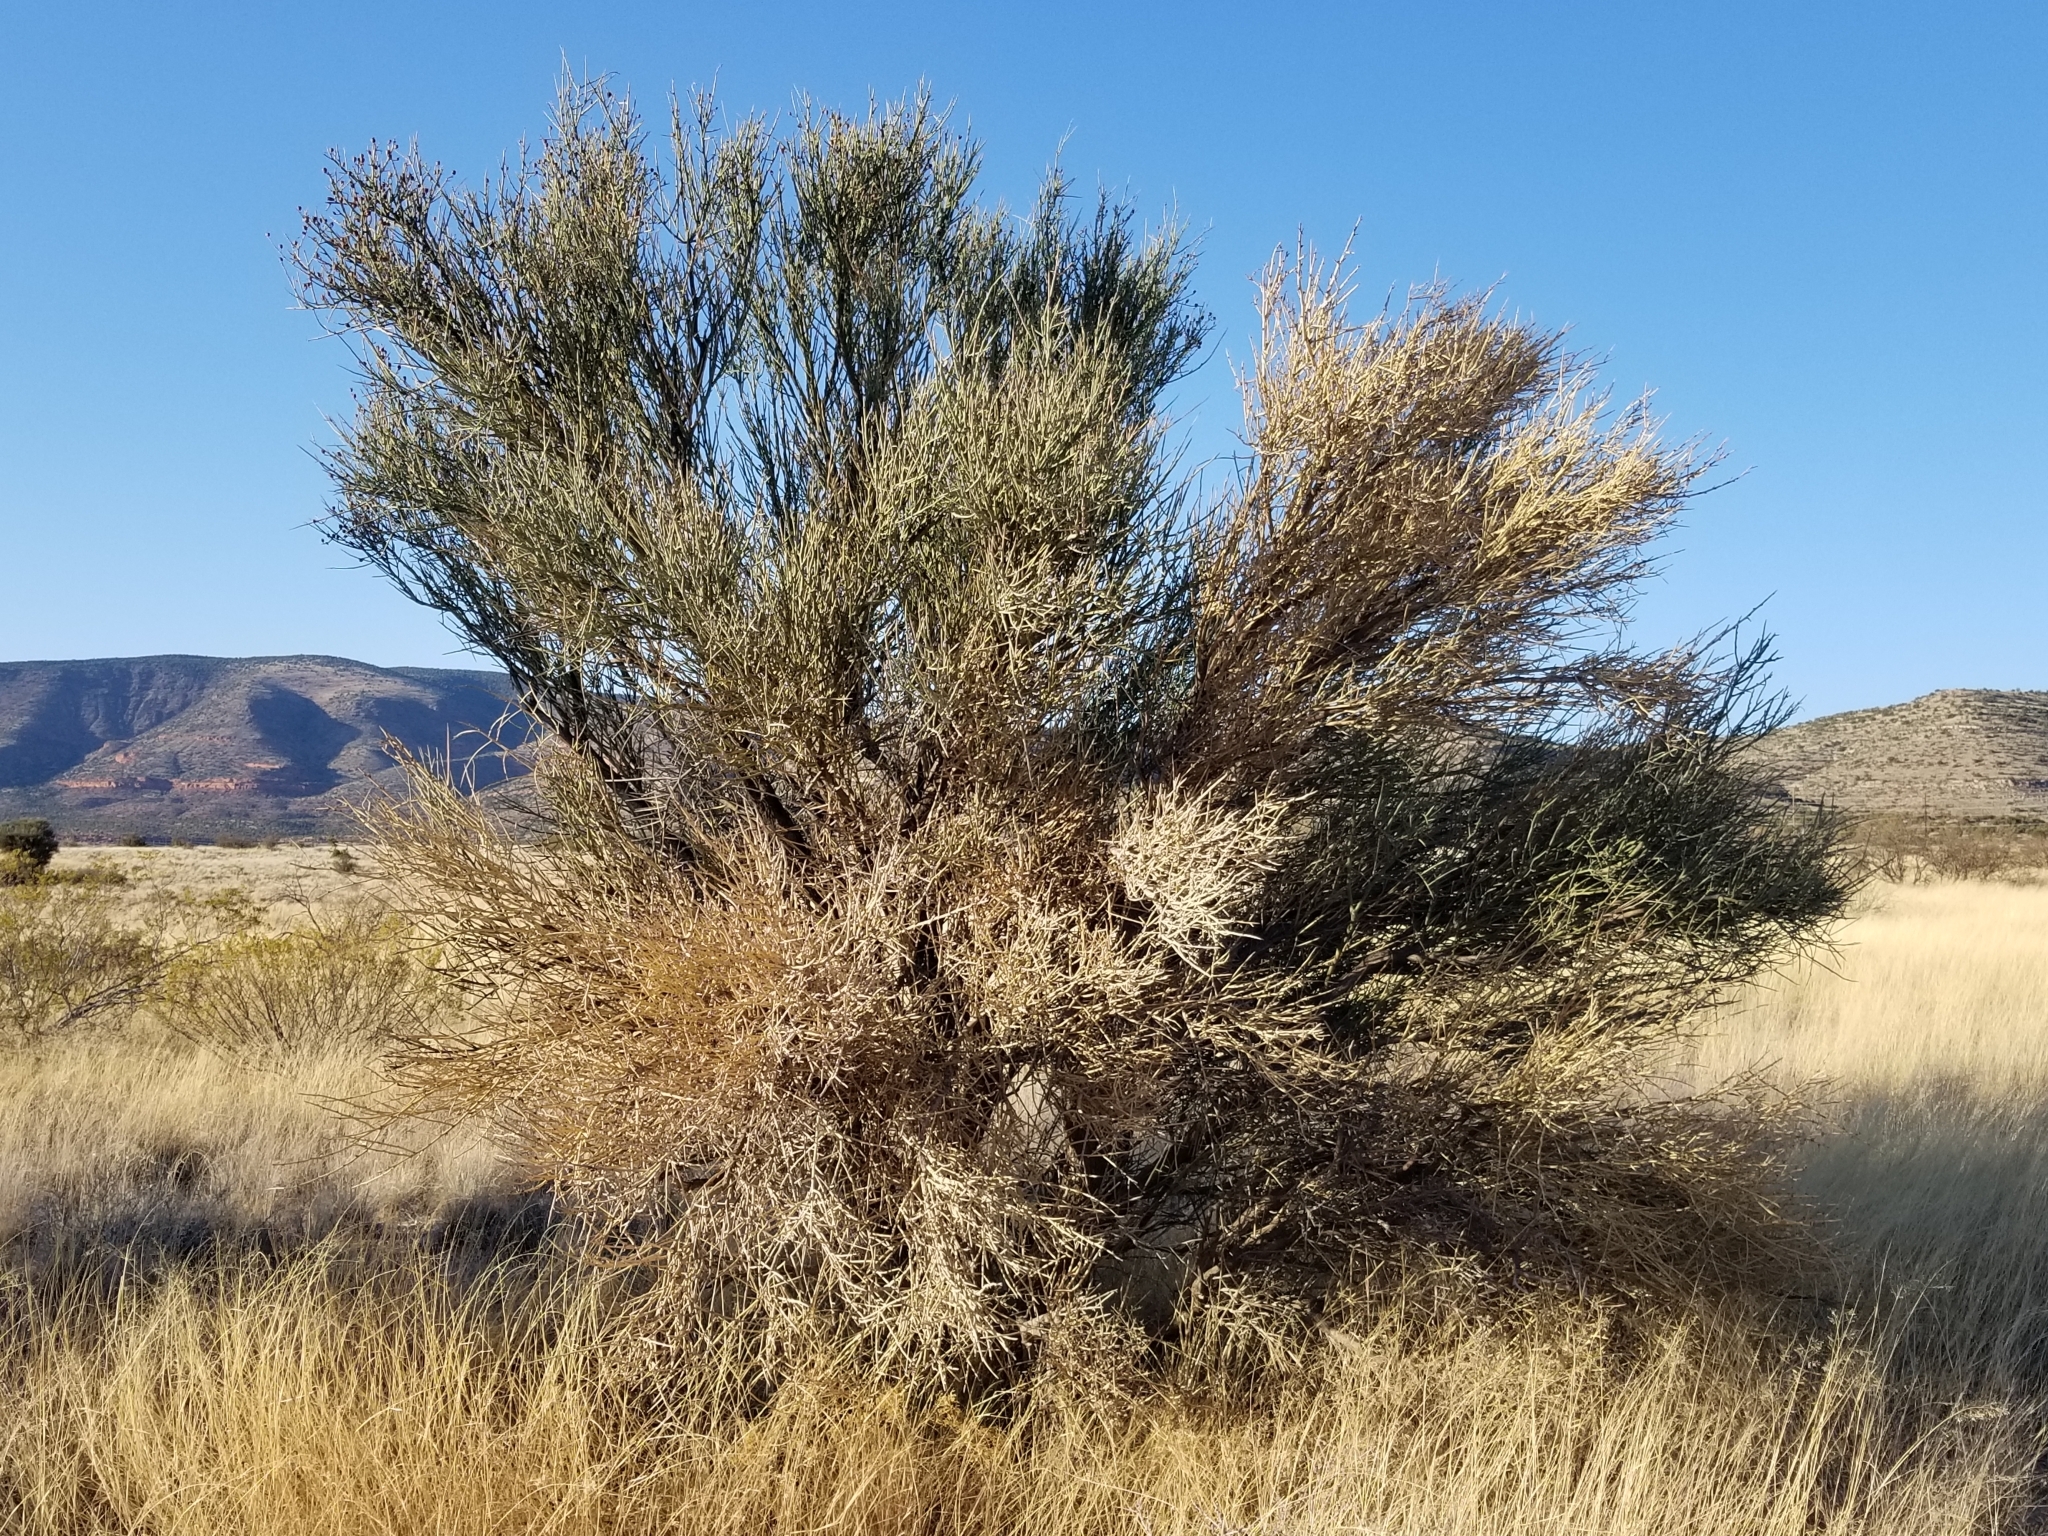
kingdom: Plantae
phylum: Tracheophyta
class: Magnoliopsida
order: Celastrales
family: Celastraceae
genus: Canotia
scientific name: Canotia holacantha
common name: Crucifixion thorns
